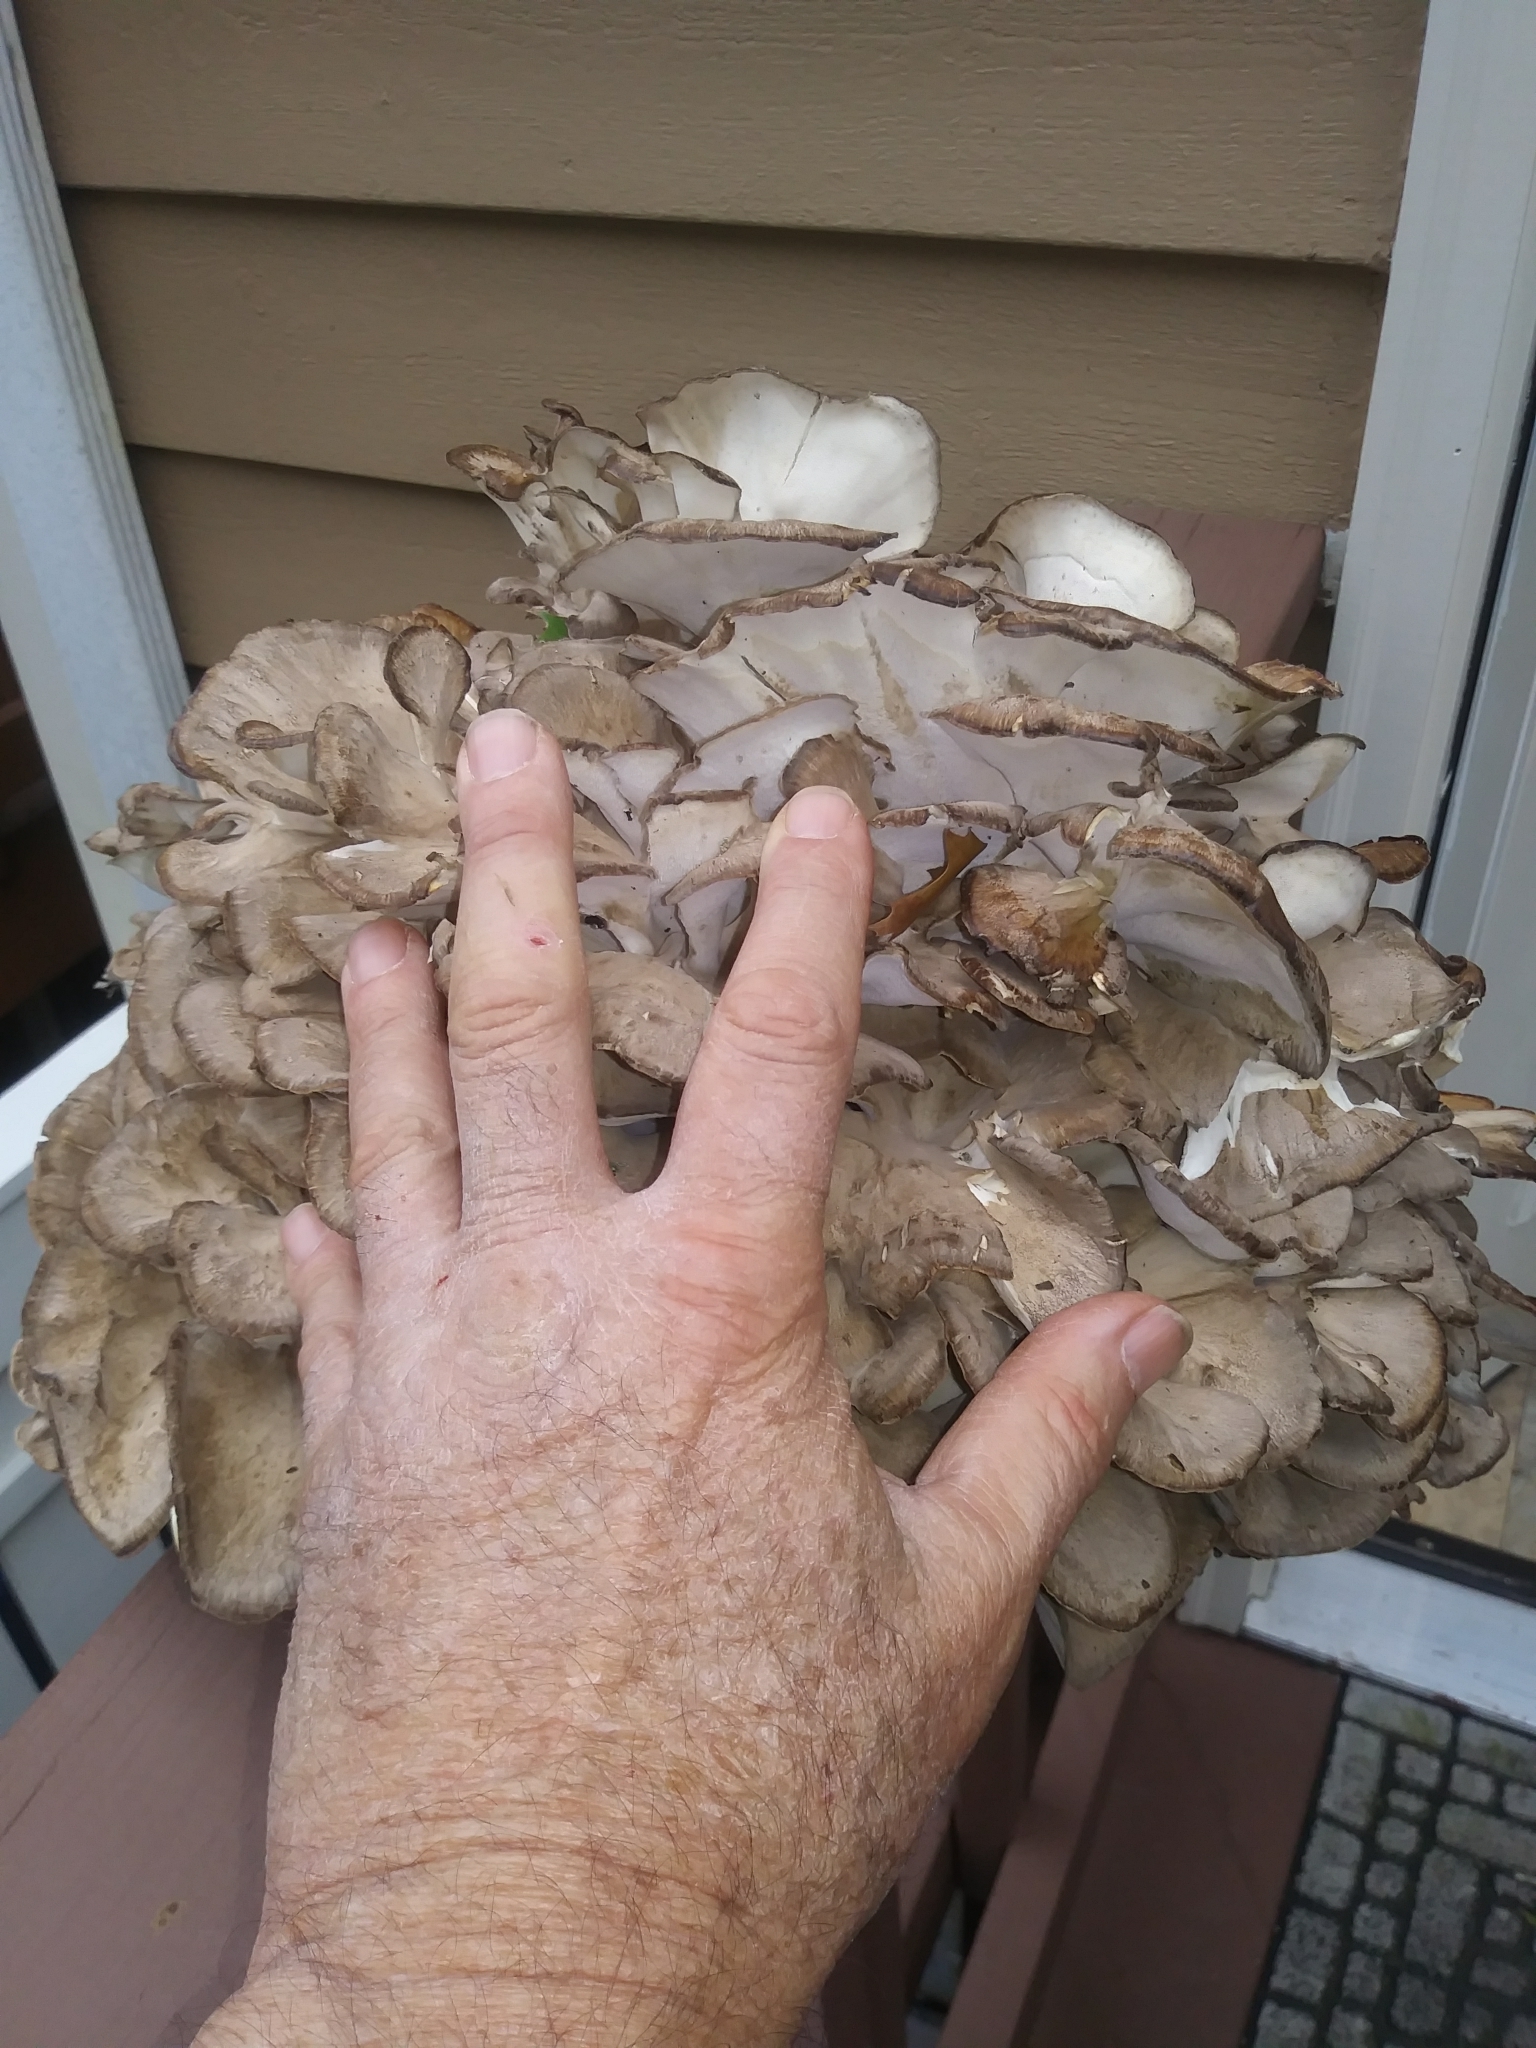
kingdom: Fungi
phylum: Basidiomycota
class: Agaricomycetes
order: Polyporales
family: Grifolaceae
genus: Grifola
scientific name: Grifola frondosa
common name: Hen of the woods
